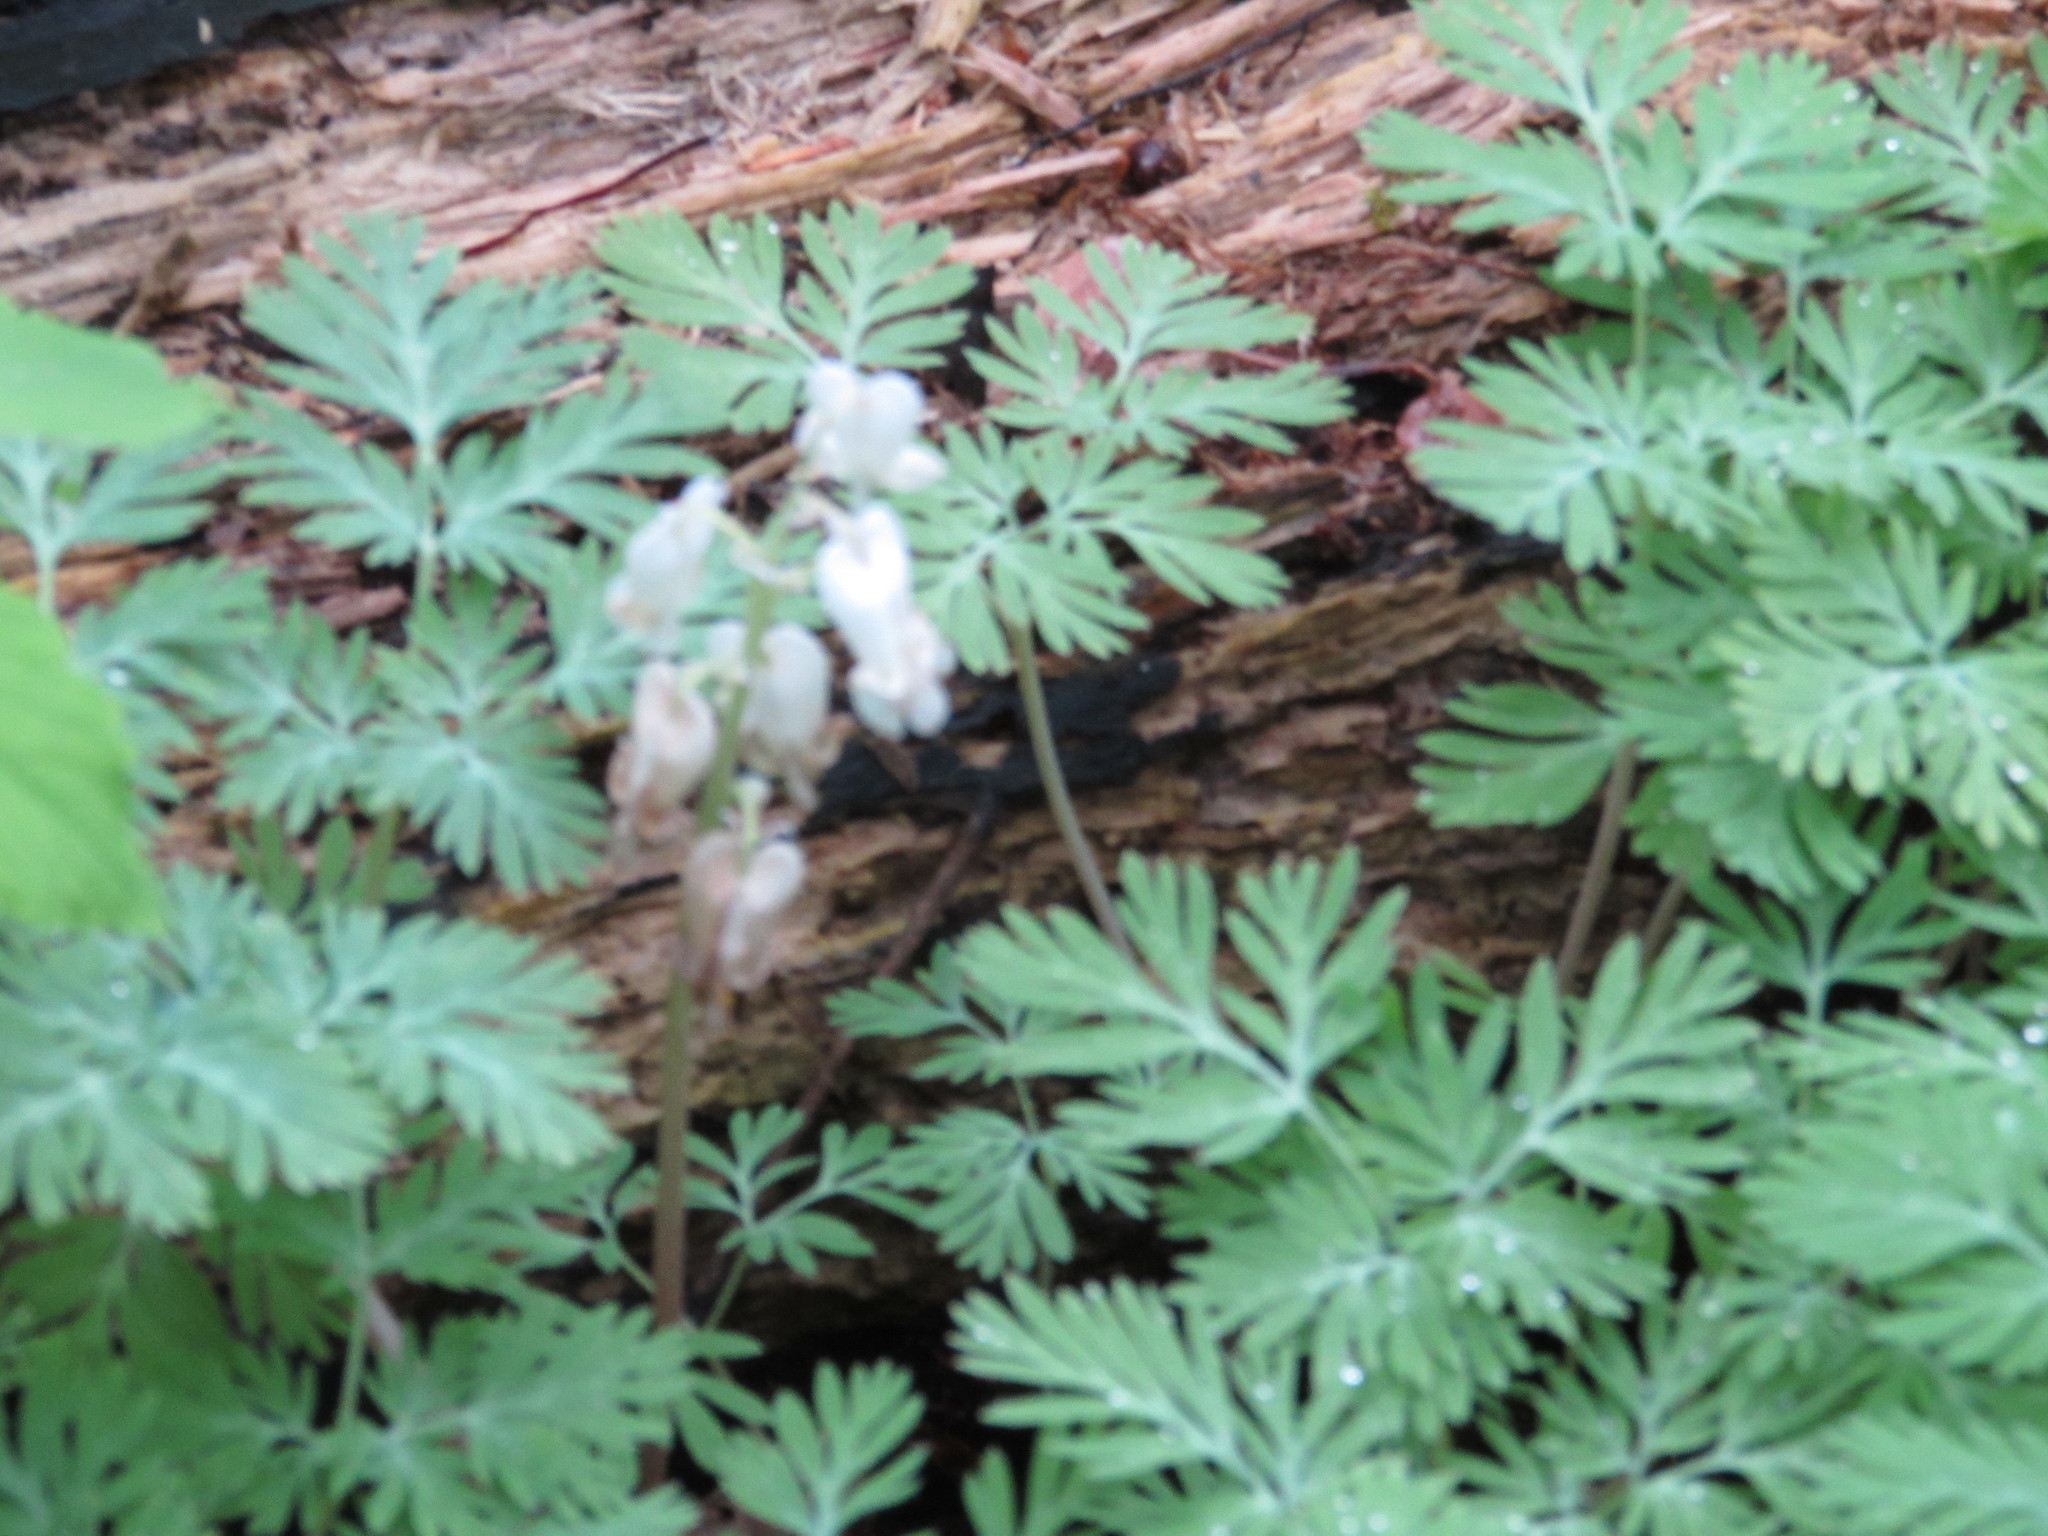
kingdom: Plantae
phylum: Tracheophyta
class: Magnoliopsida
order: Ranunculales
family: Papaveraceae
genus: Dicentra
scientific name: Dicentra canadensis
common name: Squirrel-corn
